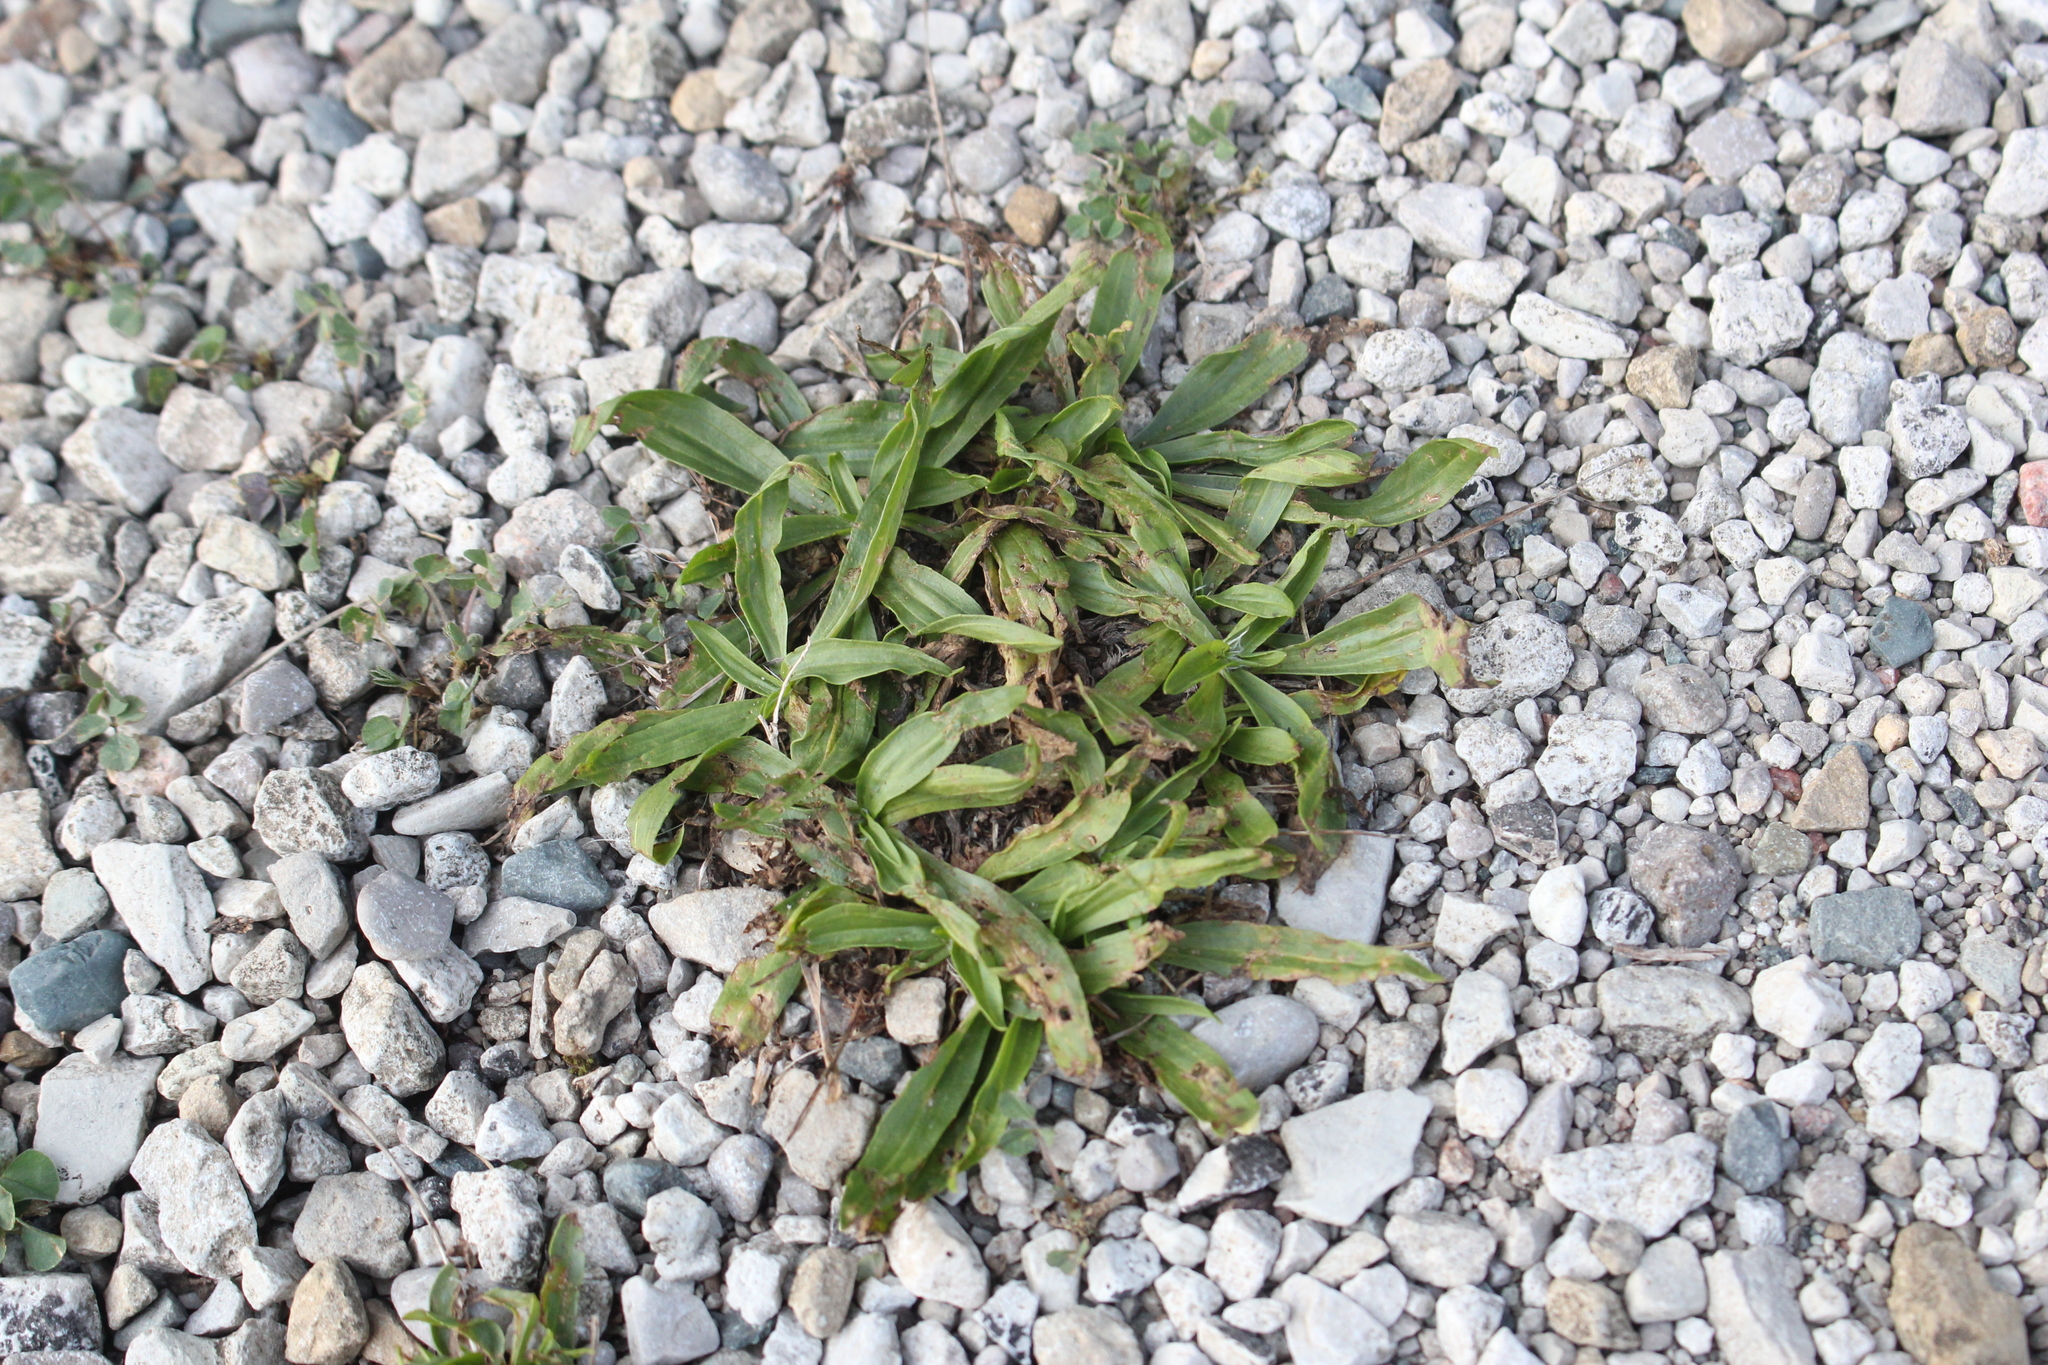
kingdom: Plantae
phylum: Tracheophyta
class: Magnoliopsida
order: Lamiales
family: Plantaginaceae
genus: Plantago
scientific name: Plantago lanceolata
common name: Ribwort plantain
